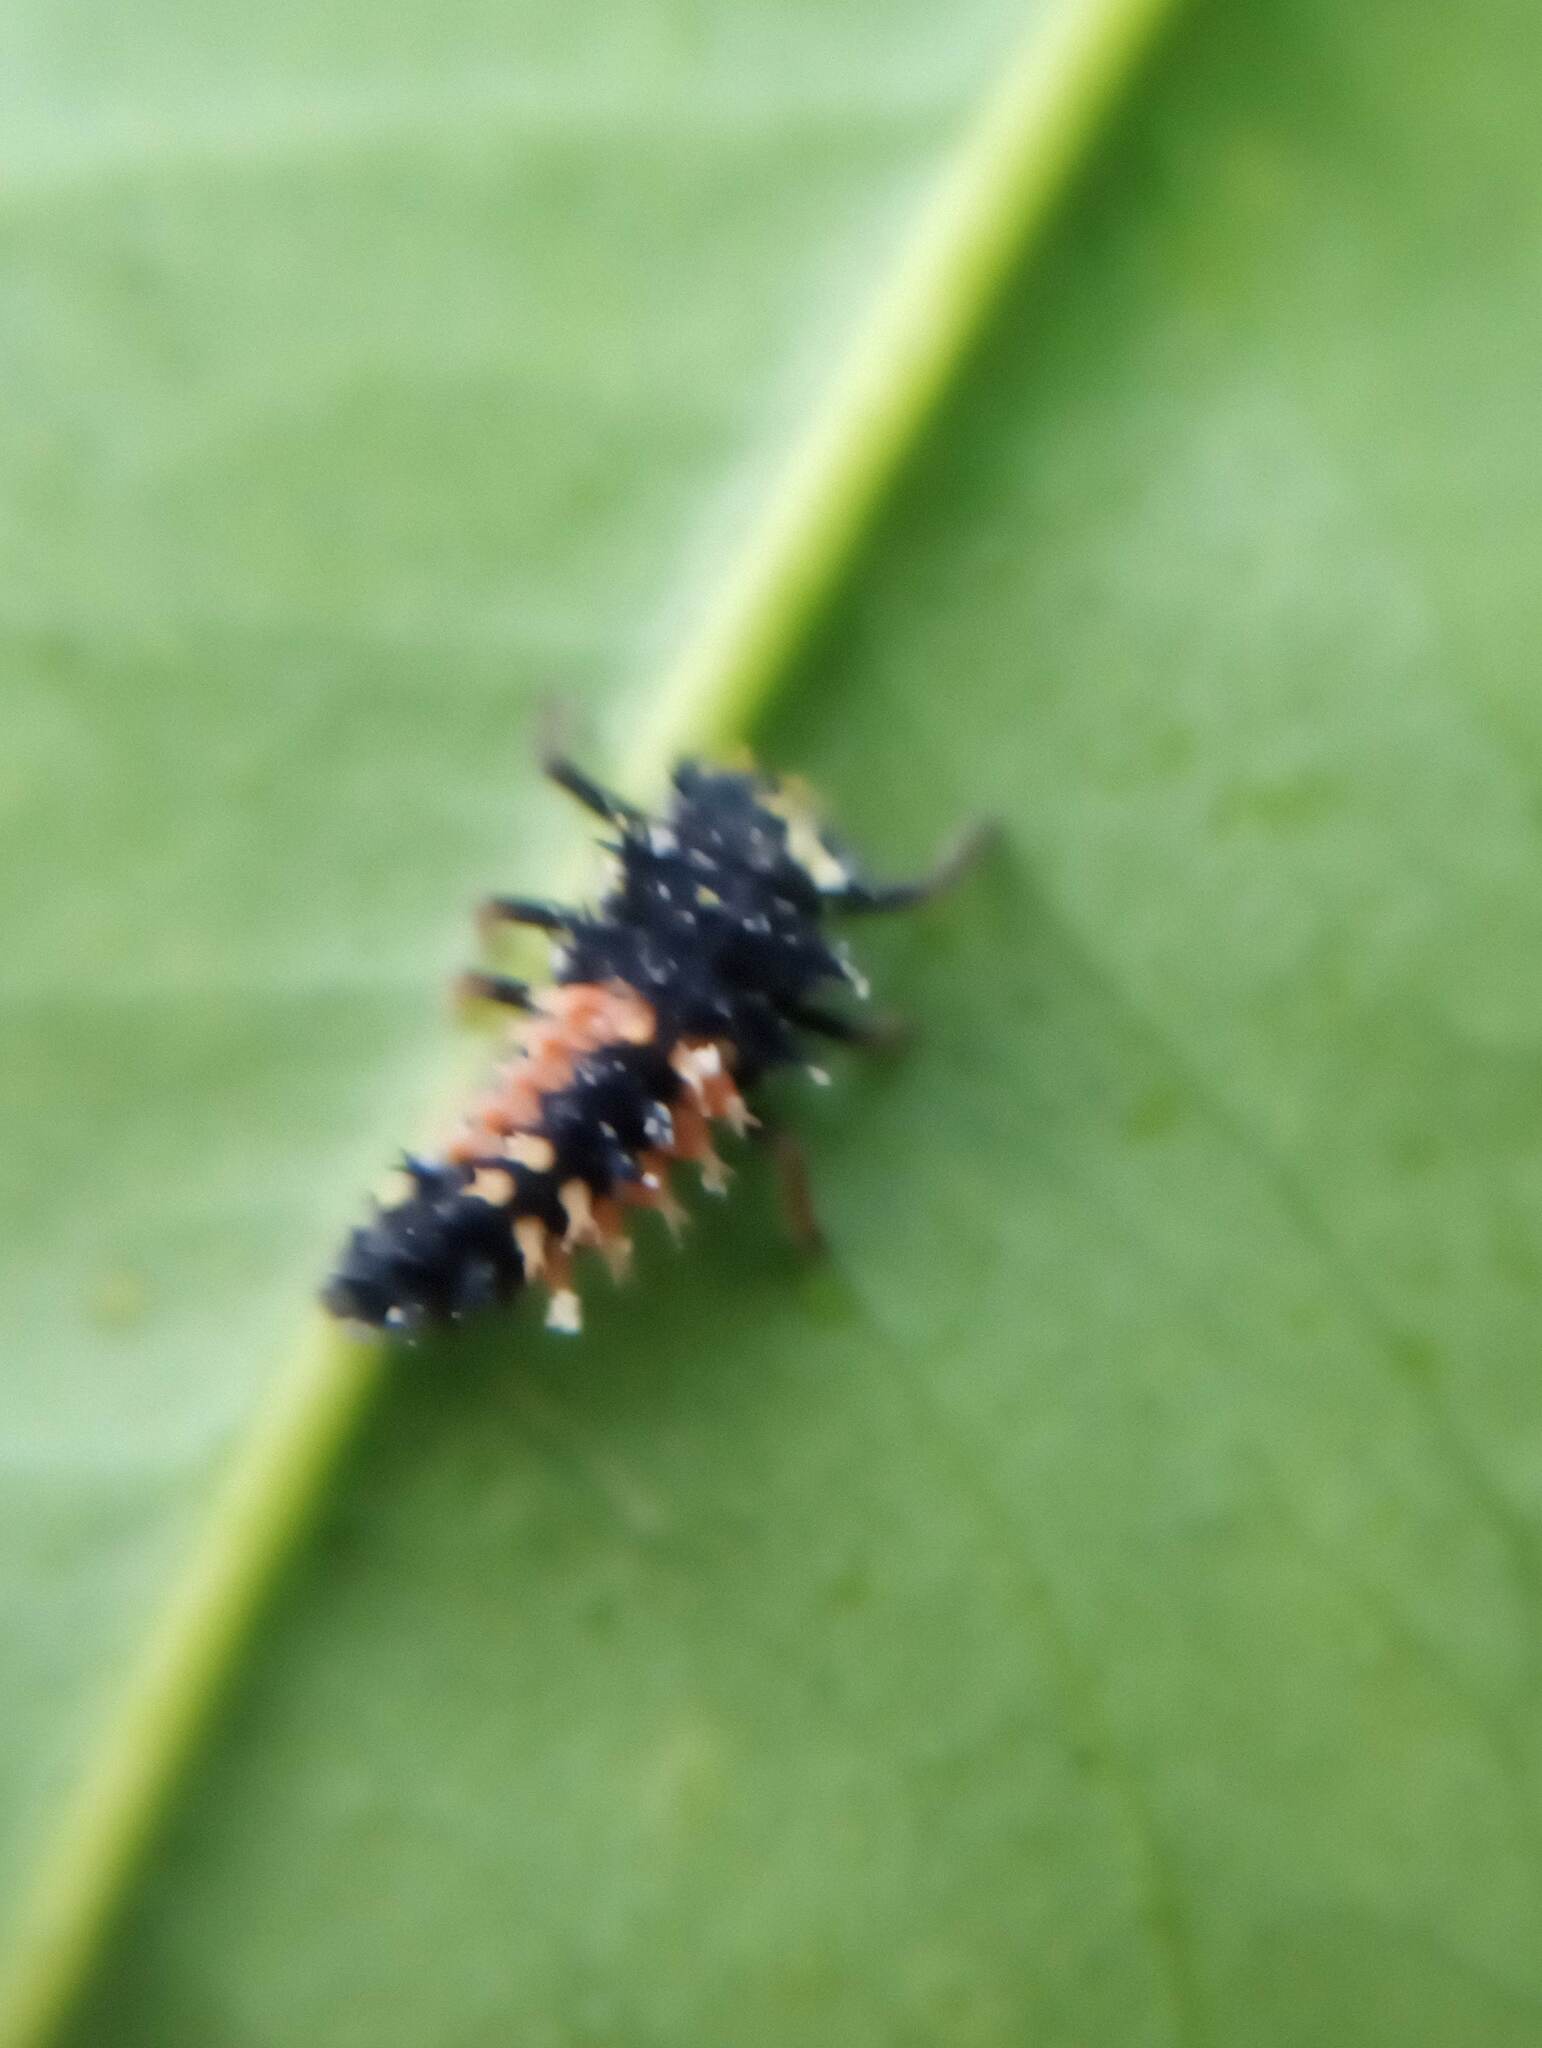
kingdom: Animalia
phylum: Arthropoda
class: Insecta
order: Coleoptera
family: Coccinellidae
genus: Harmonia
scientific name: Harmonia axyridis
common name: Harlequin ladybird
